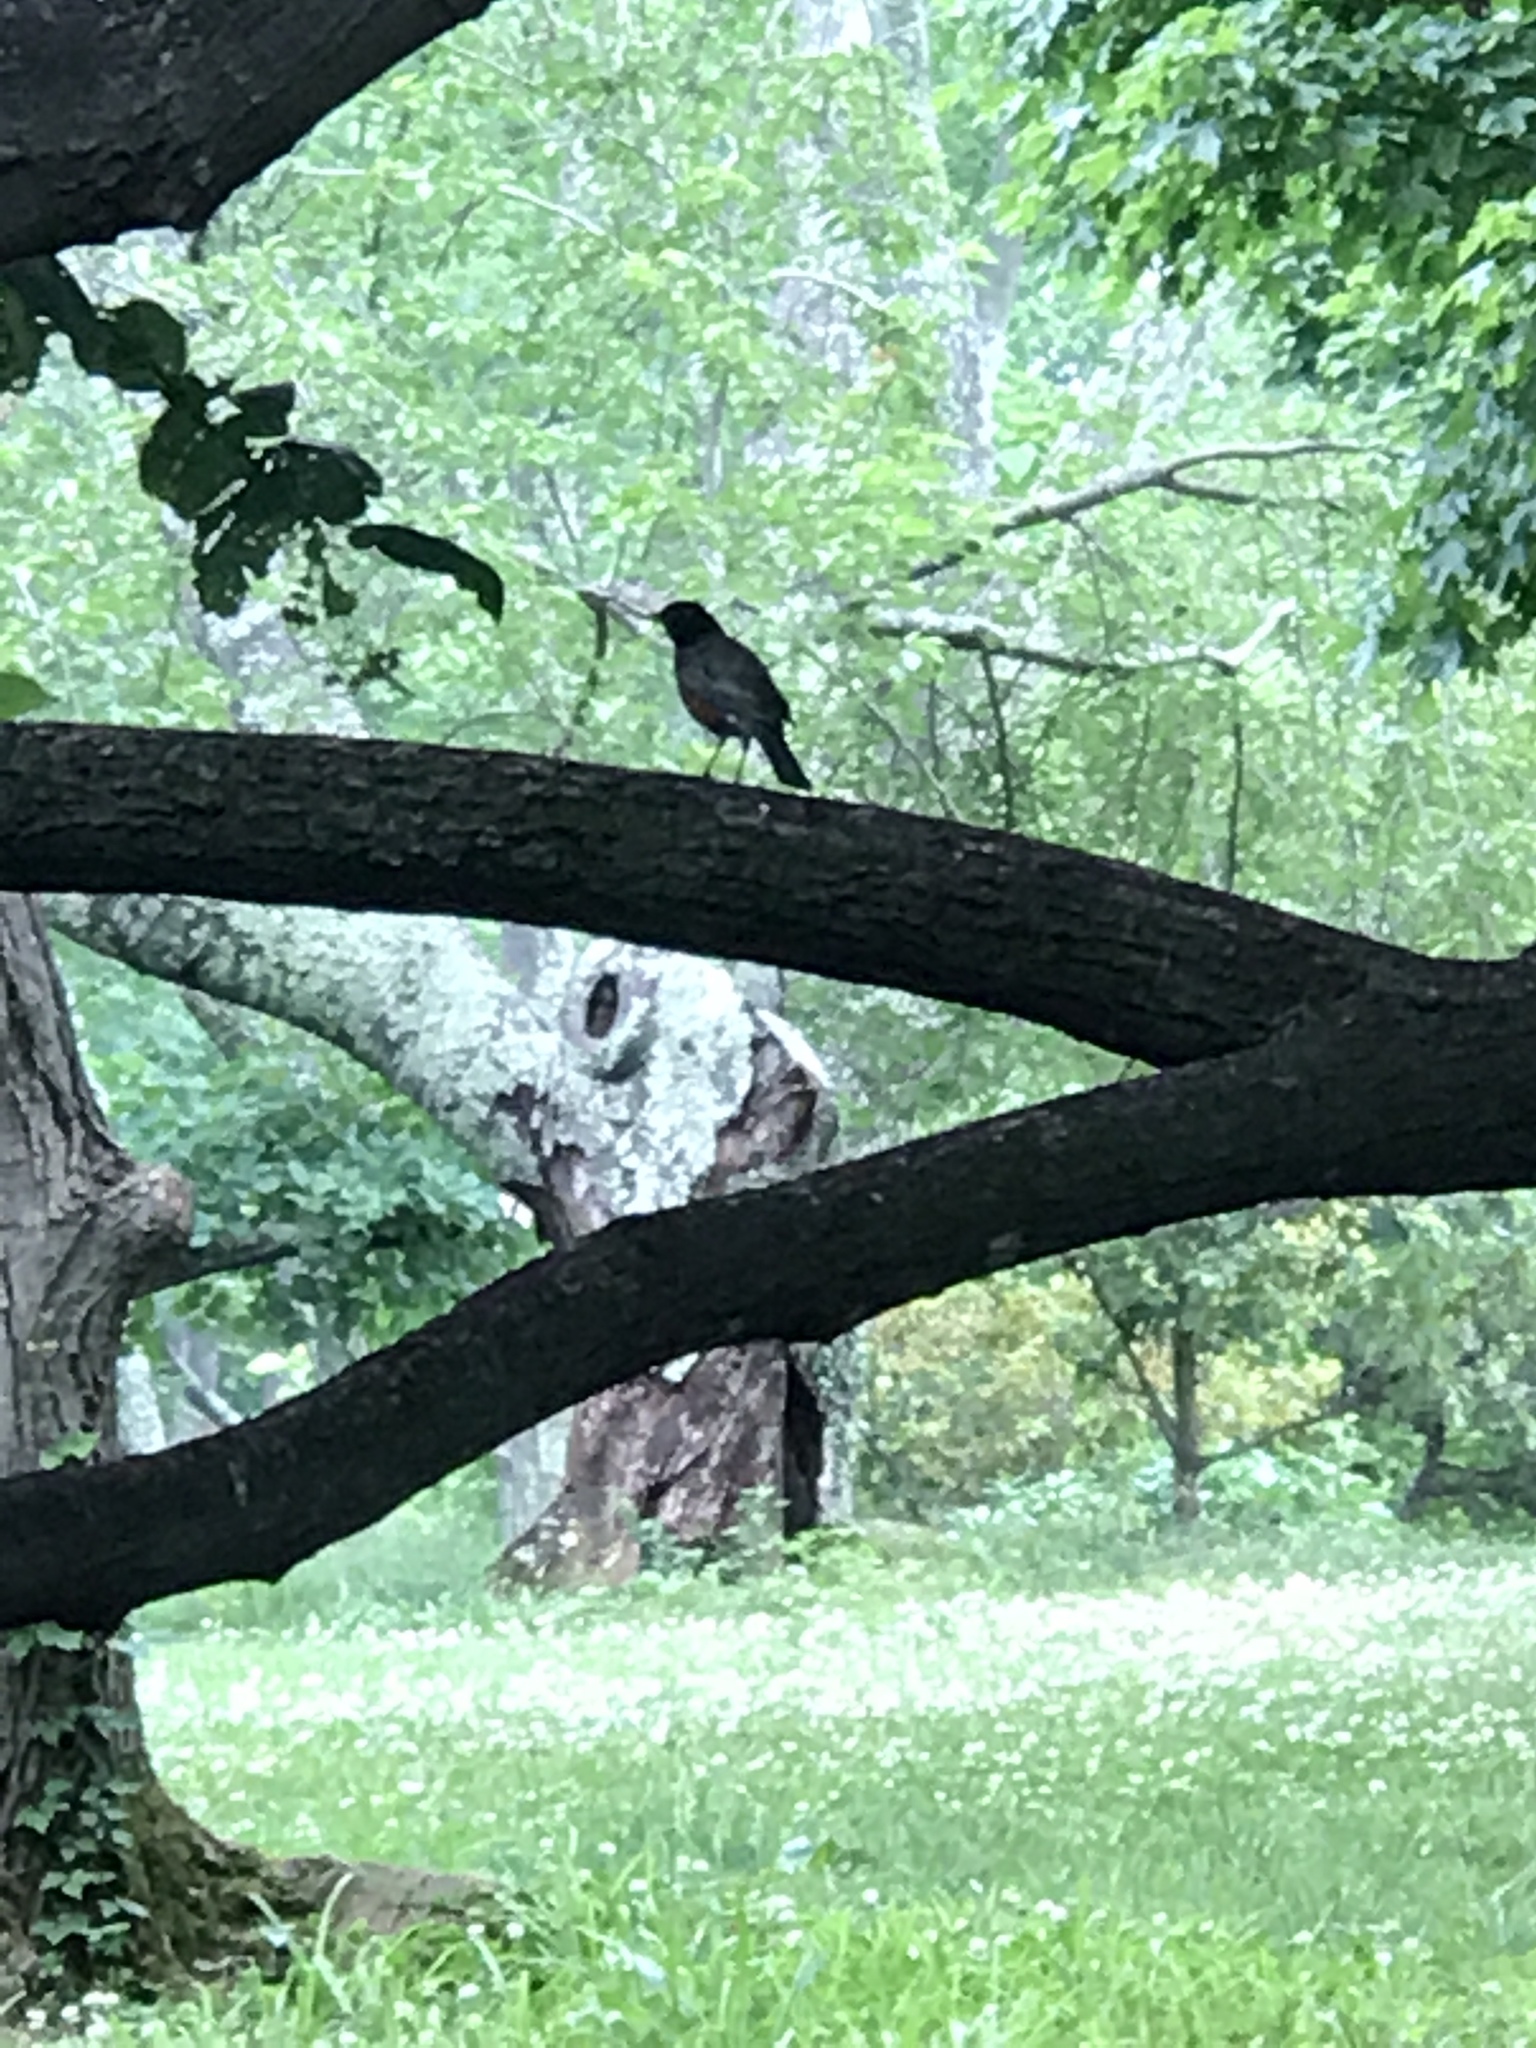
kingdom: Animalia
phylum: Chordata
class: Aves
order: Passeriformes
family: Turdidae
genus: Turdus
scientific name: Turdus migratorius
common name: American robin
